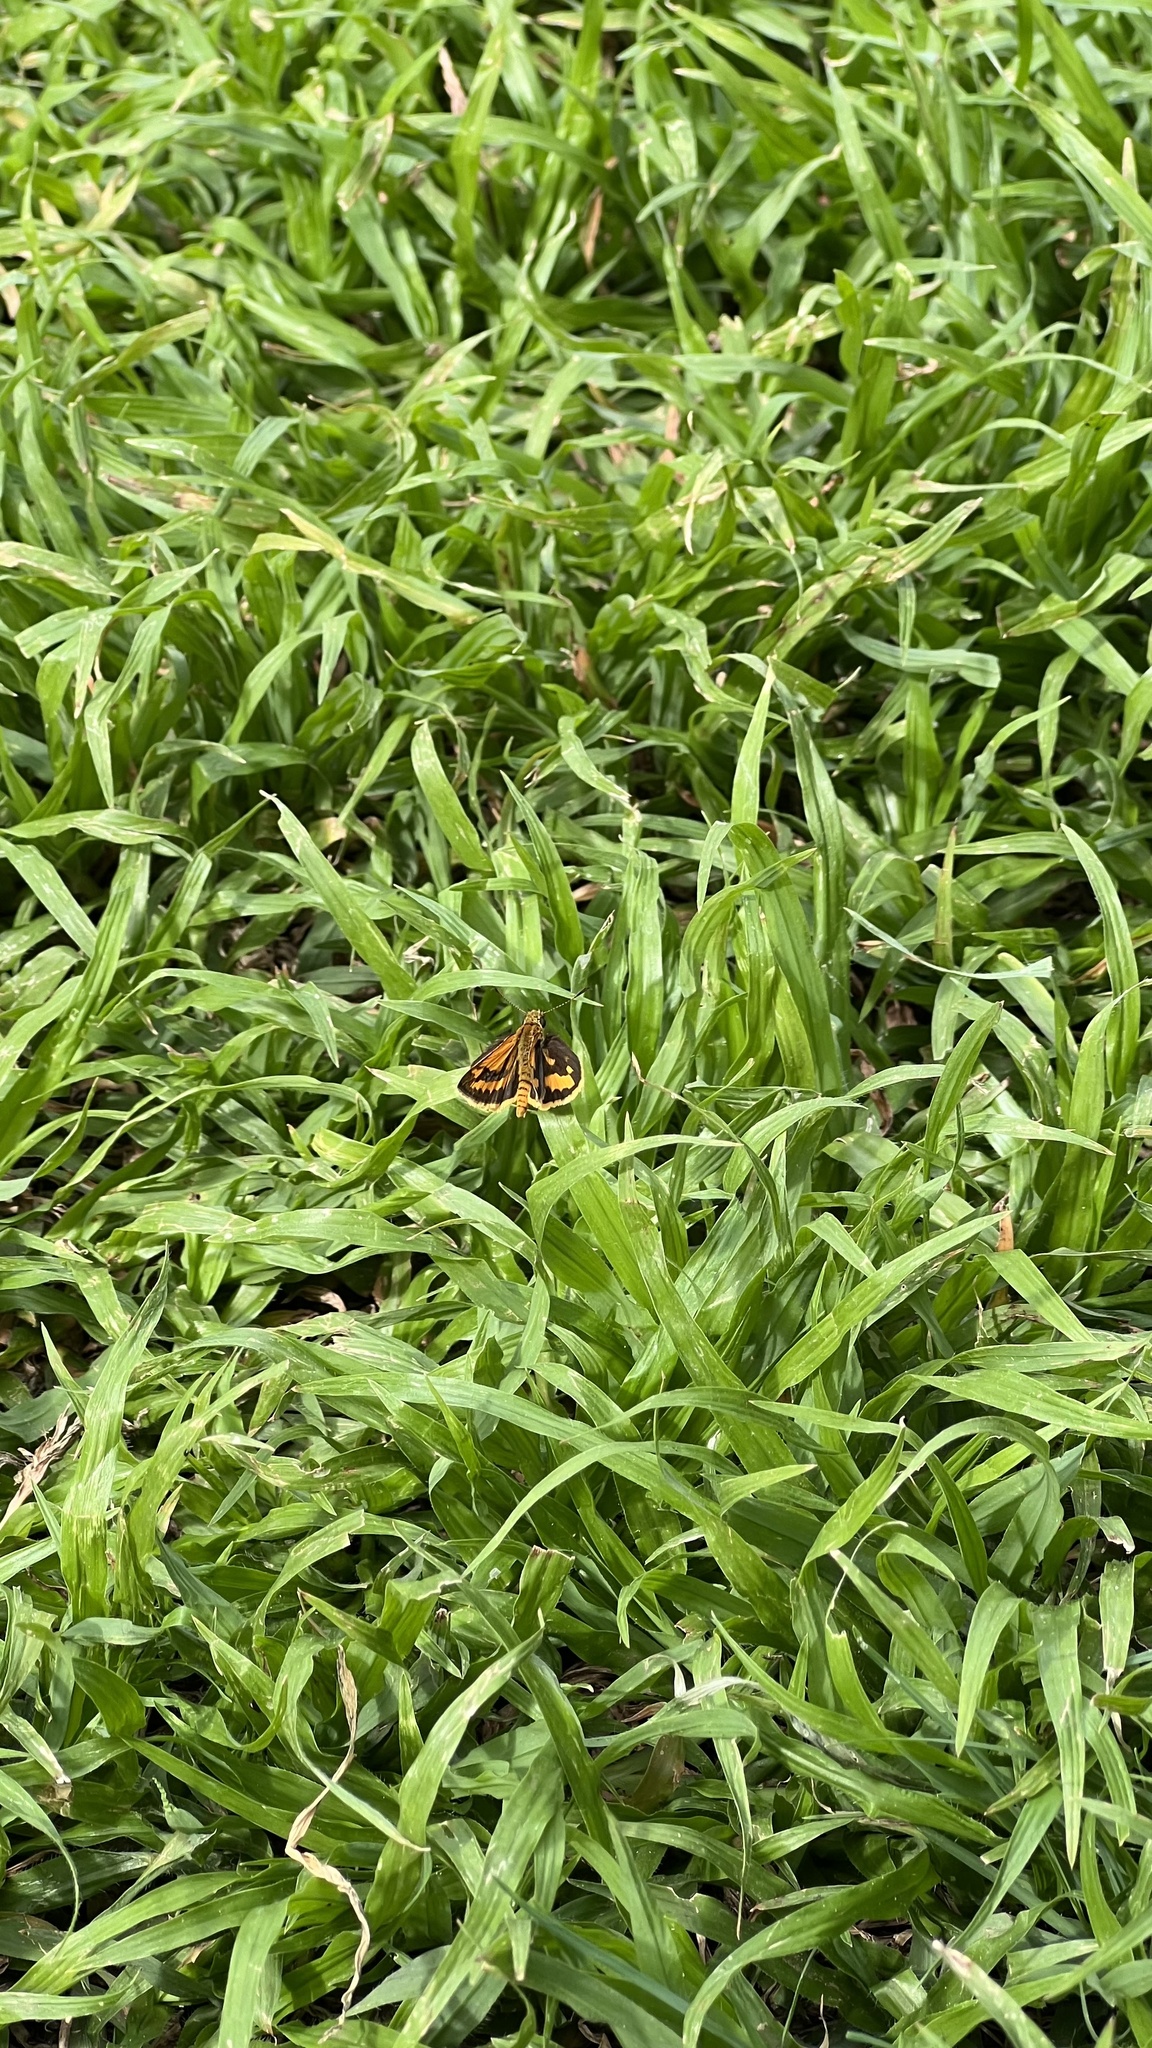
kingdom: Animalia
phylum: Arthropoda
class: Insecta
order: Lepidoptera
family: Hesperiidae
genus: Suniana
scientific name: Suniana sunias
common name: Wide-brand grass-dart
